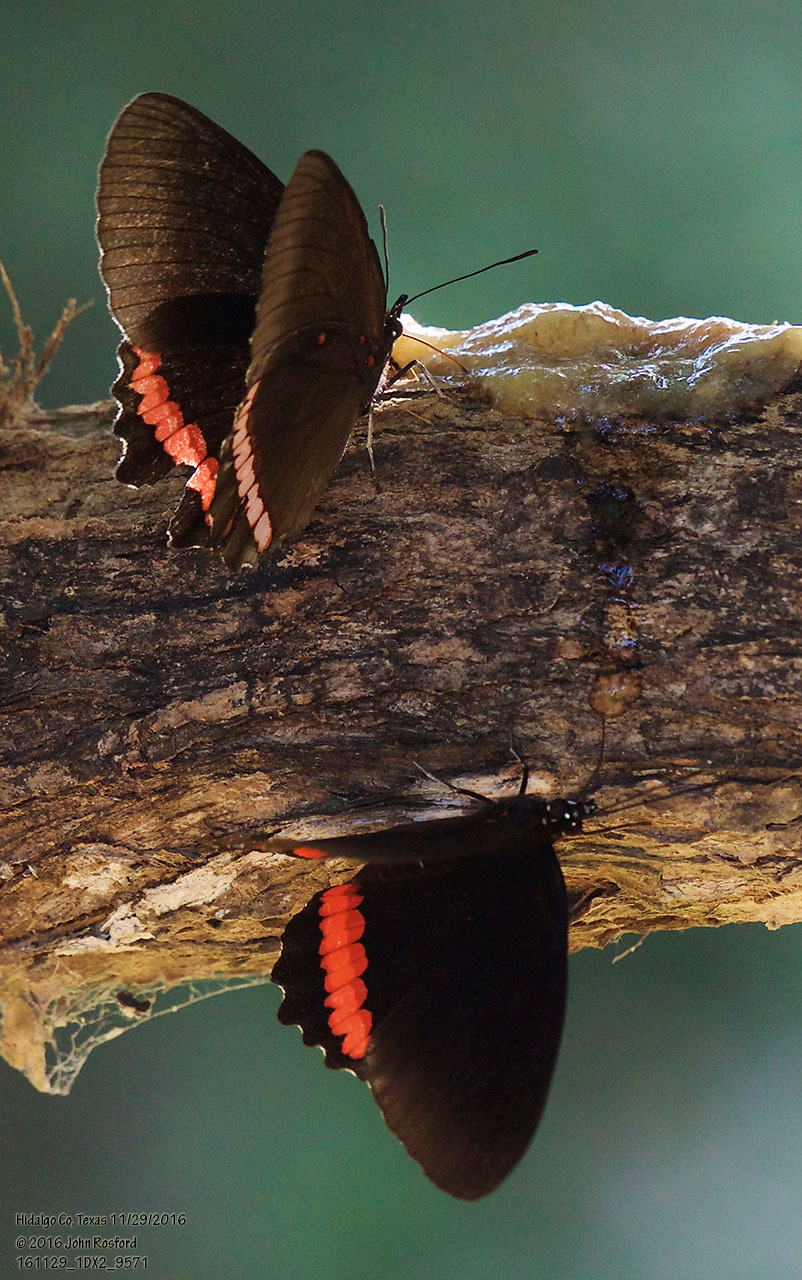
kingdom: Animalia
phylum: Arthropoda
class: Insecta
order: Lepidoptera
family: Nymphalidae
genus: Biblis
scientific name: Biblis aganisa
